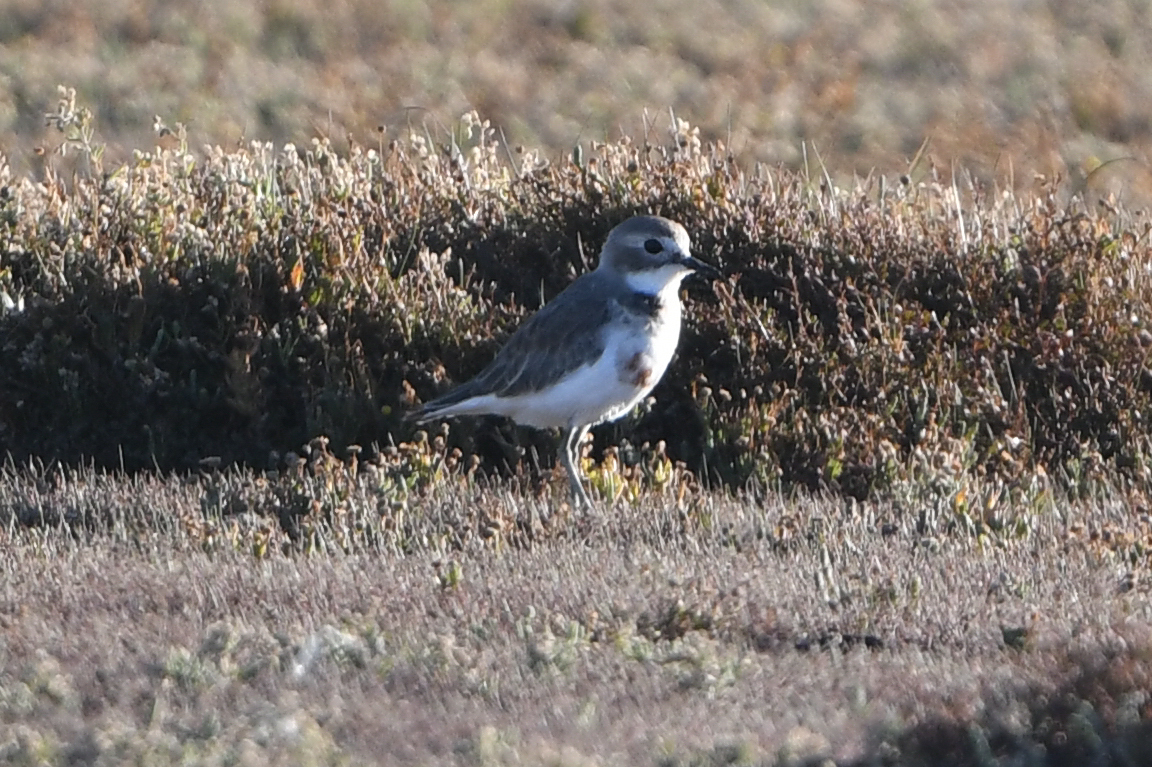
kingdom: Animalia
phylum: Chordata
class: Aves
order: Charadriiformes
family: Charadriidae
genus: Anarhynchus
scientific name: Anarhynchus
